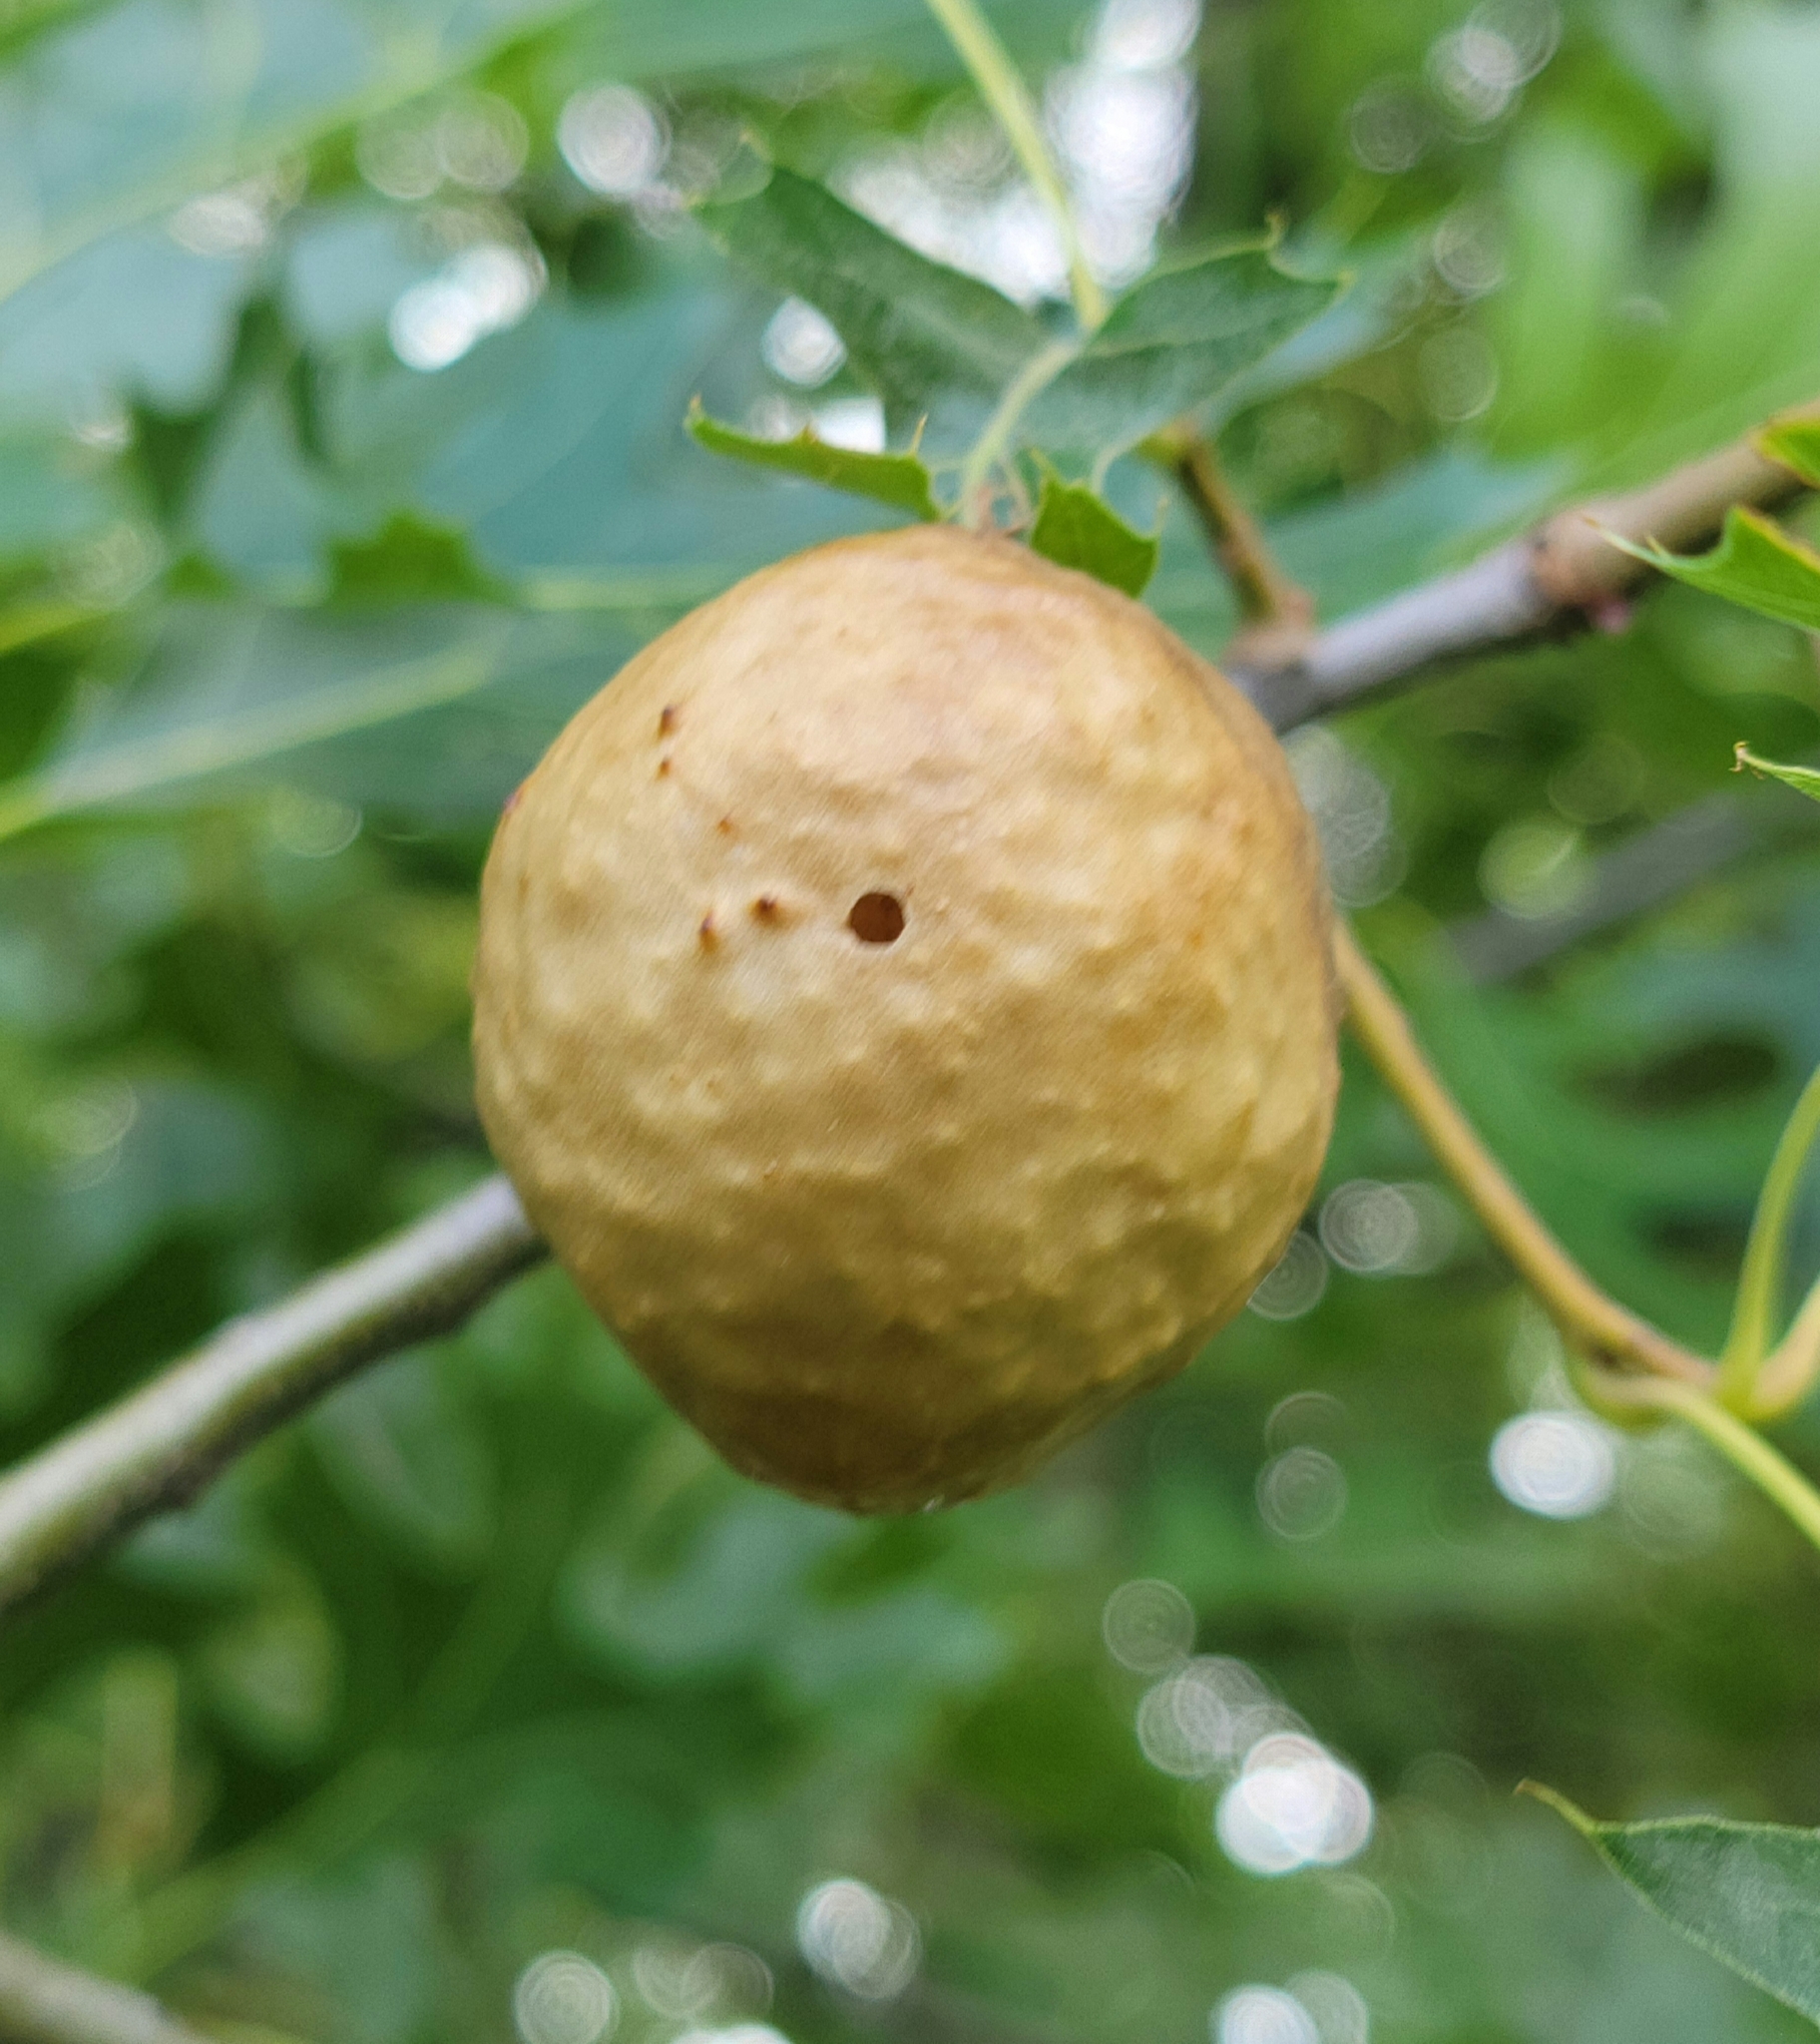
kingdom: Animalia
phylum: Arthropoda
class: Insecta
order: Hymenoptera
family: Cynipidae
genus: Amphibolips
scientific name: Amphibolips
